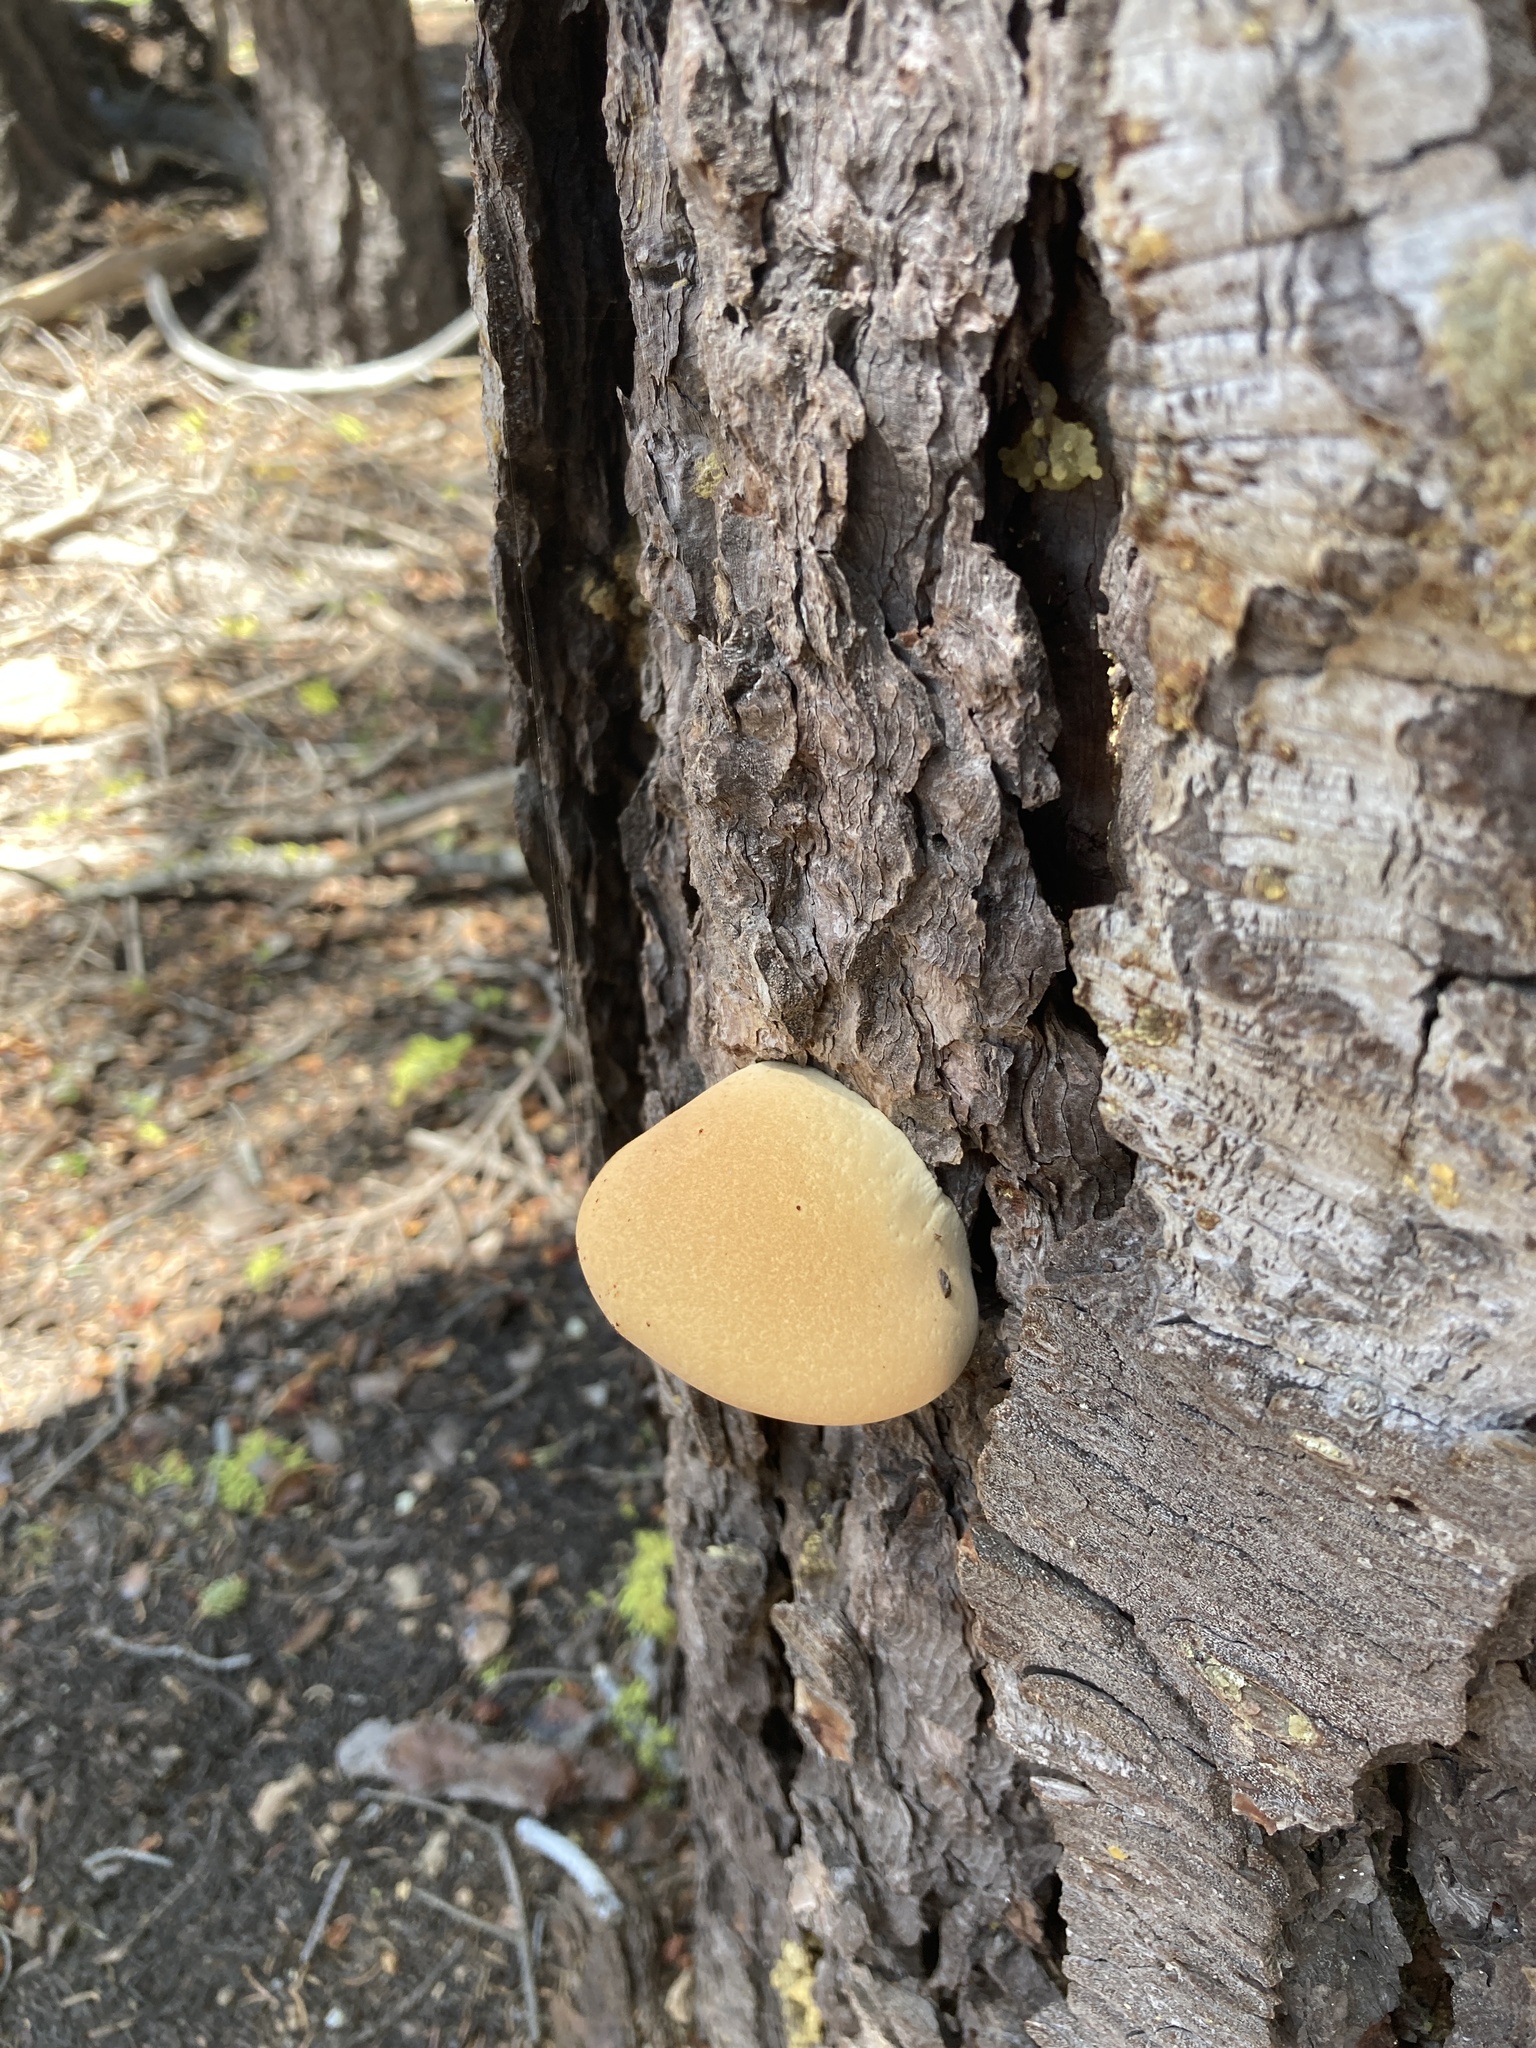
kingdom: Fungi
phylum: Basidiomycota
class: Agaricomycetes
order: Polyporales
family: Polyporaceae
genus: Cryptoporus
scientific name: Cryptoporus volvatus
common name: Veiled polypore
